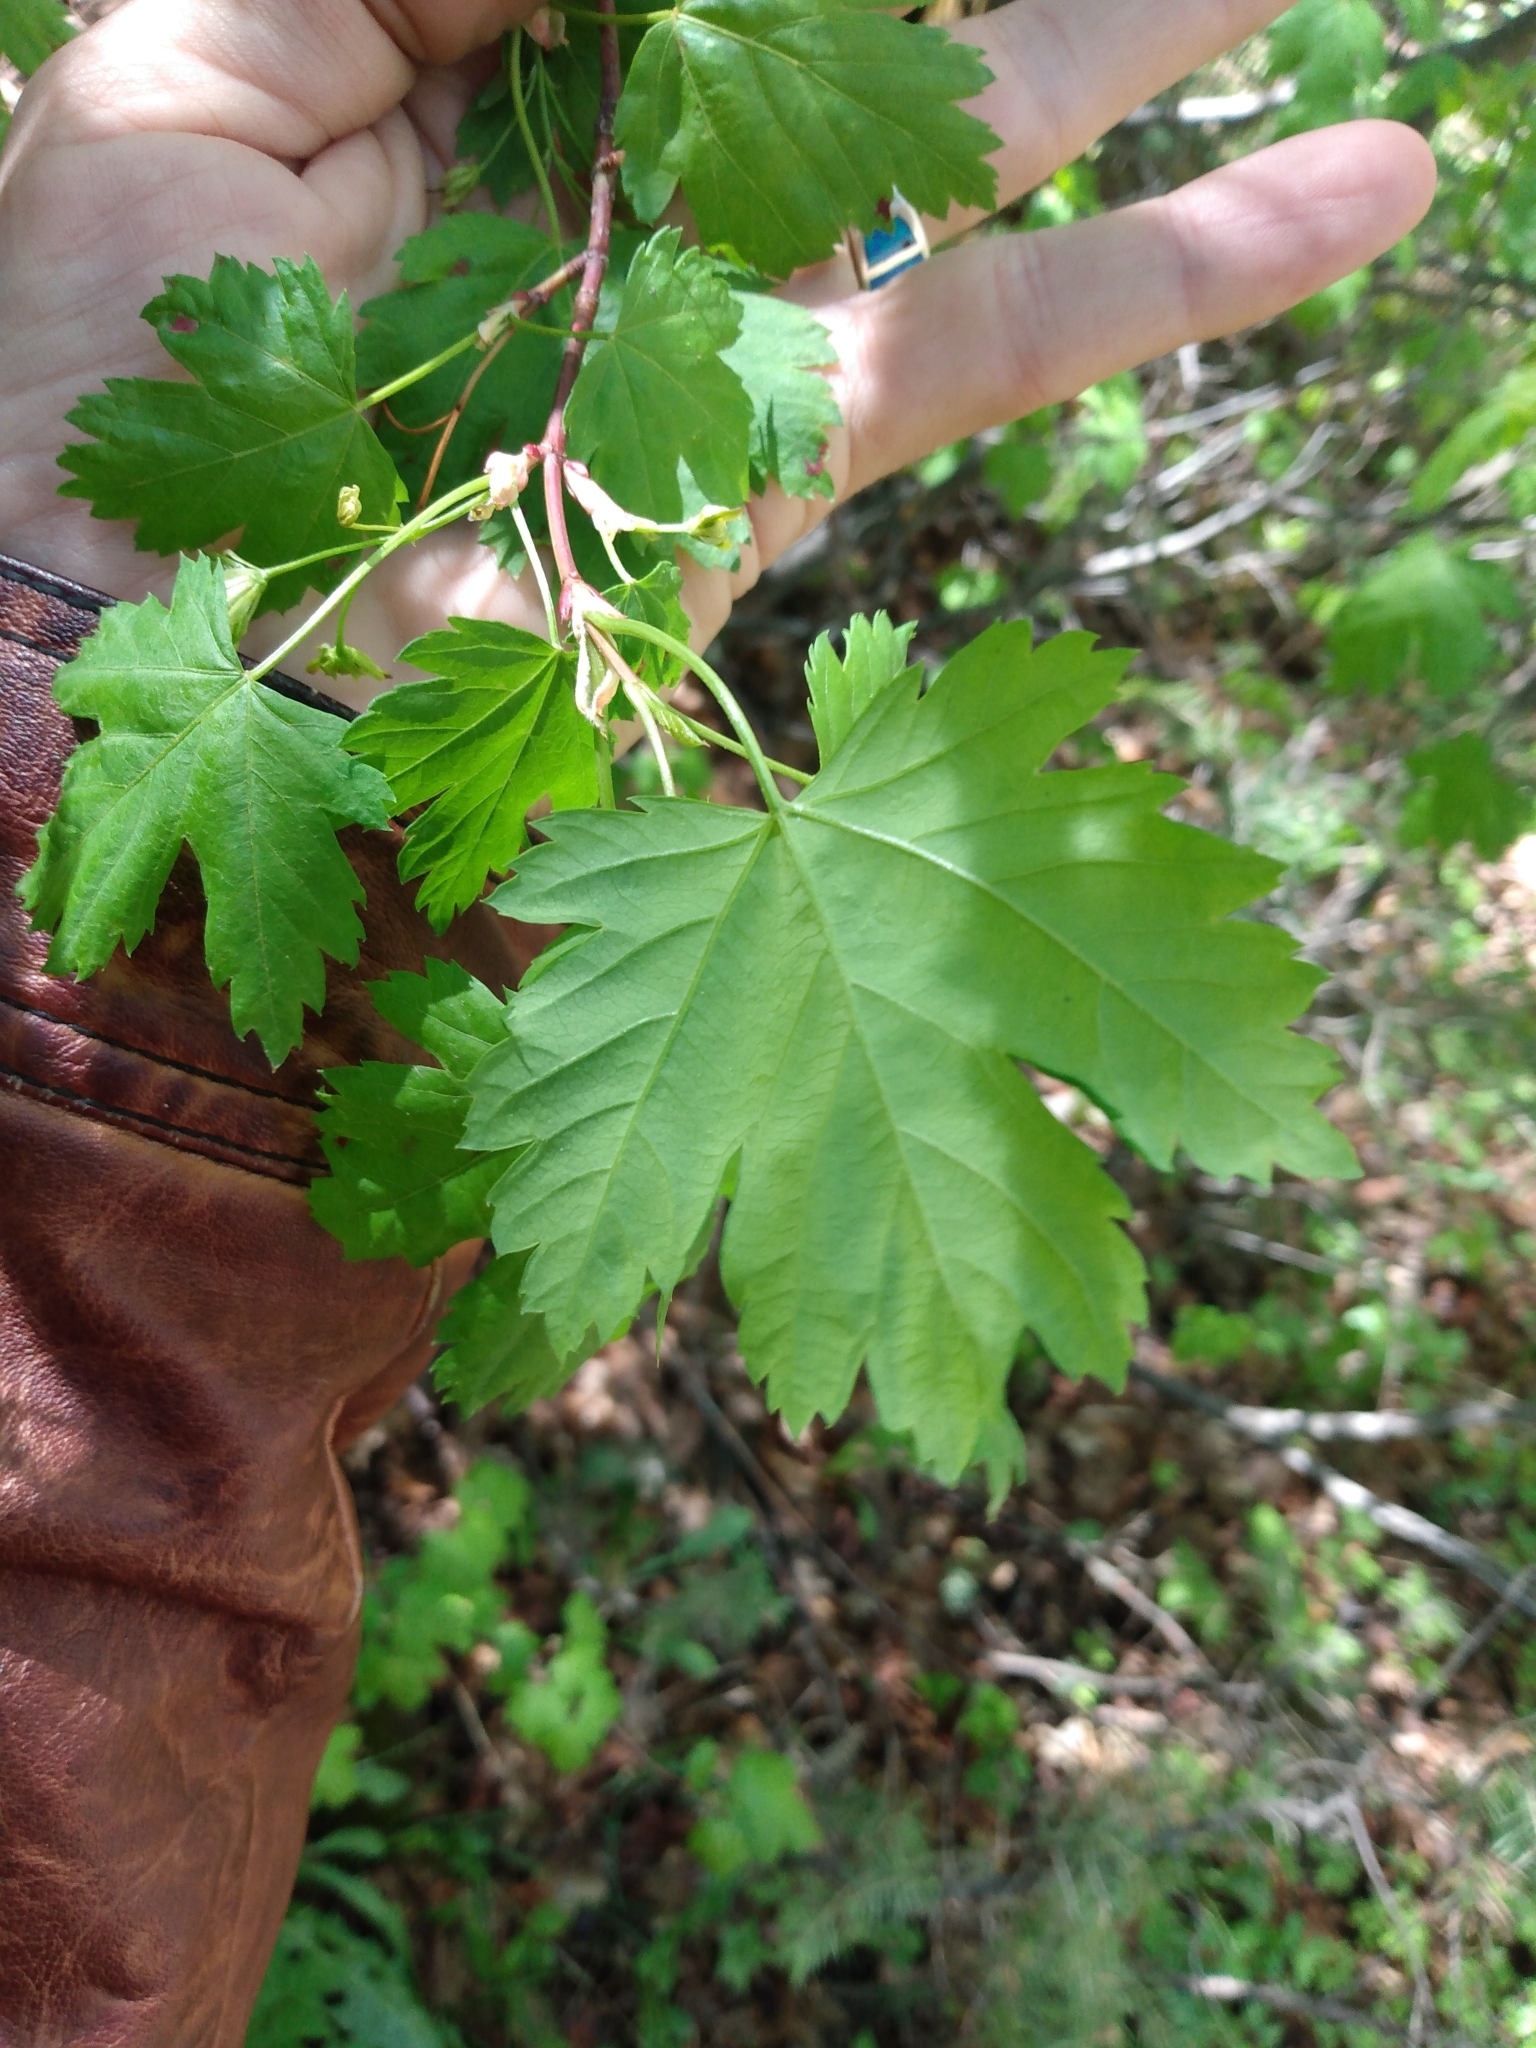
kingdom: Plantae
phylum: Tracheophyta
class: Magnoliopsida
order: Sapindales
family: Sapindaceae
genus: Acer
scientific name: Acer glabrum
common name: Rocky mountain maple
